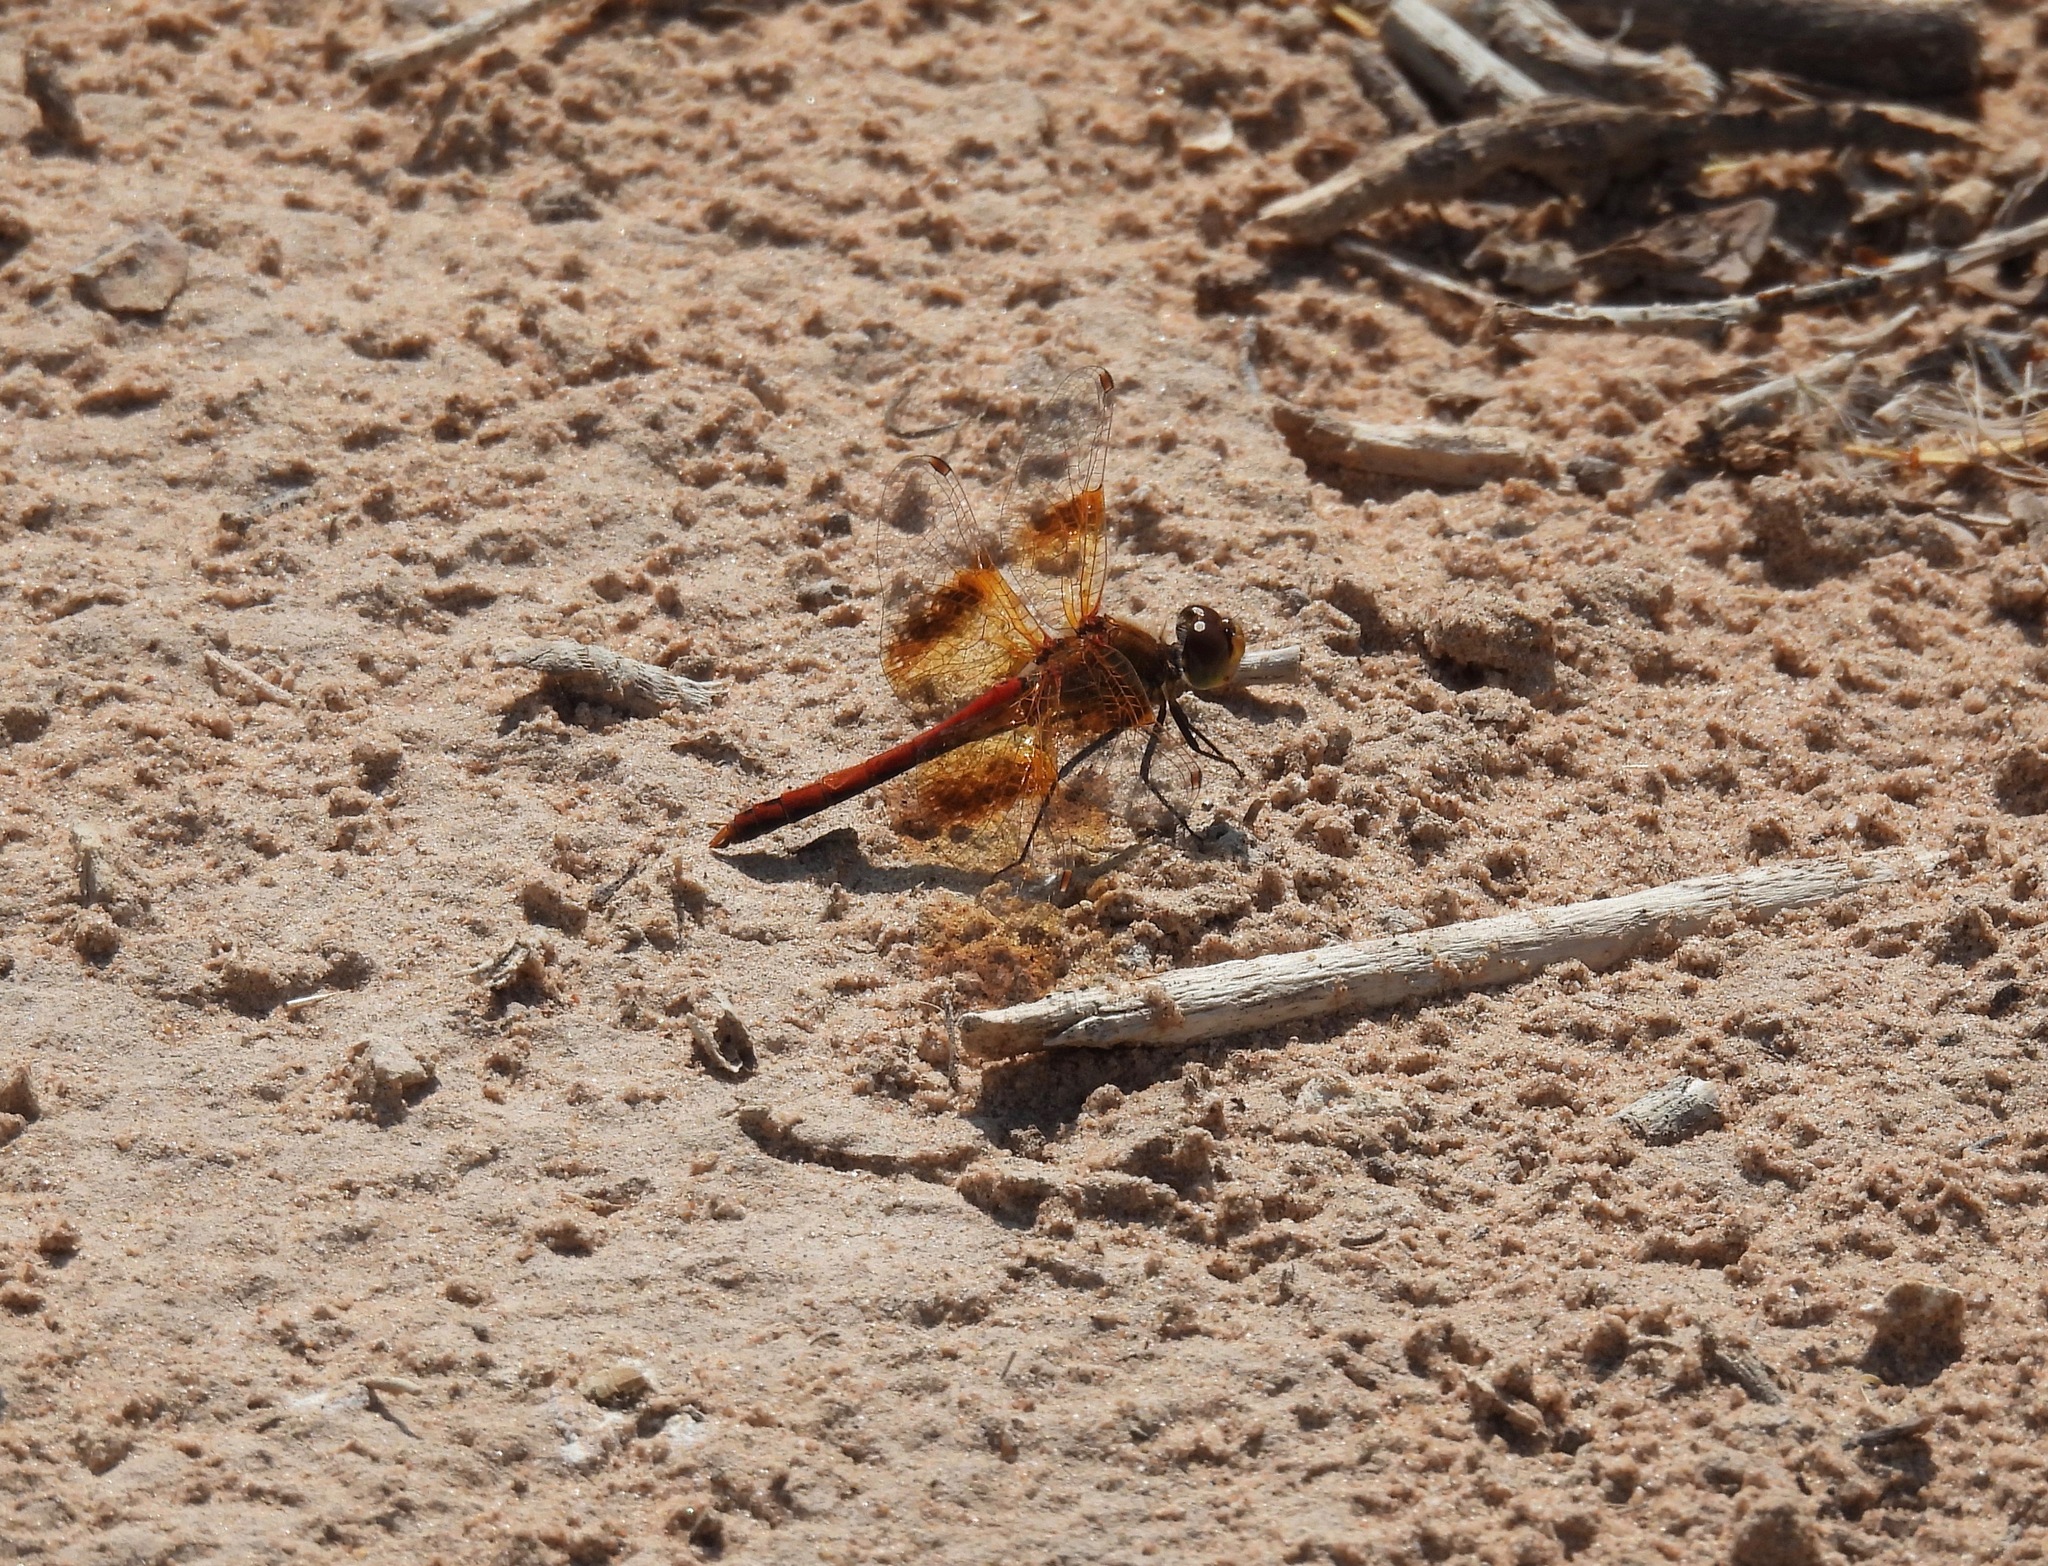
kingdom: Animalia
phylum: Arthropoda
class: Insecta
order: Odonata
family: Libellulidae
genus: Sympetrum
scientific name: Sympetrum semicinctum
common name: Band-winged meadowhawk
